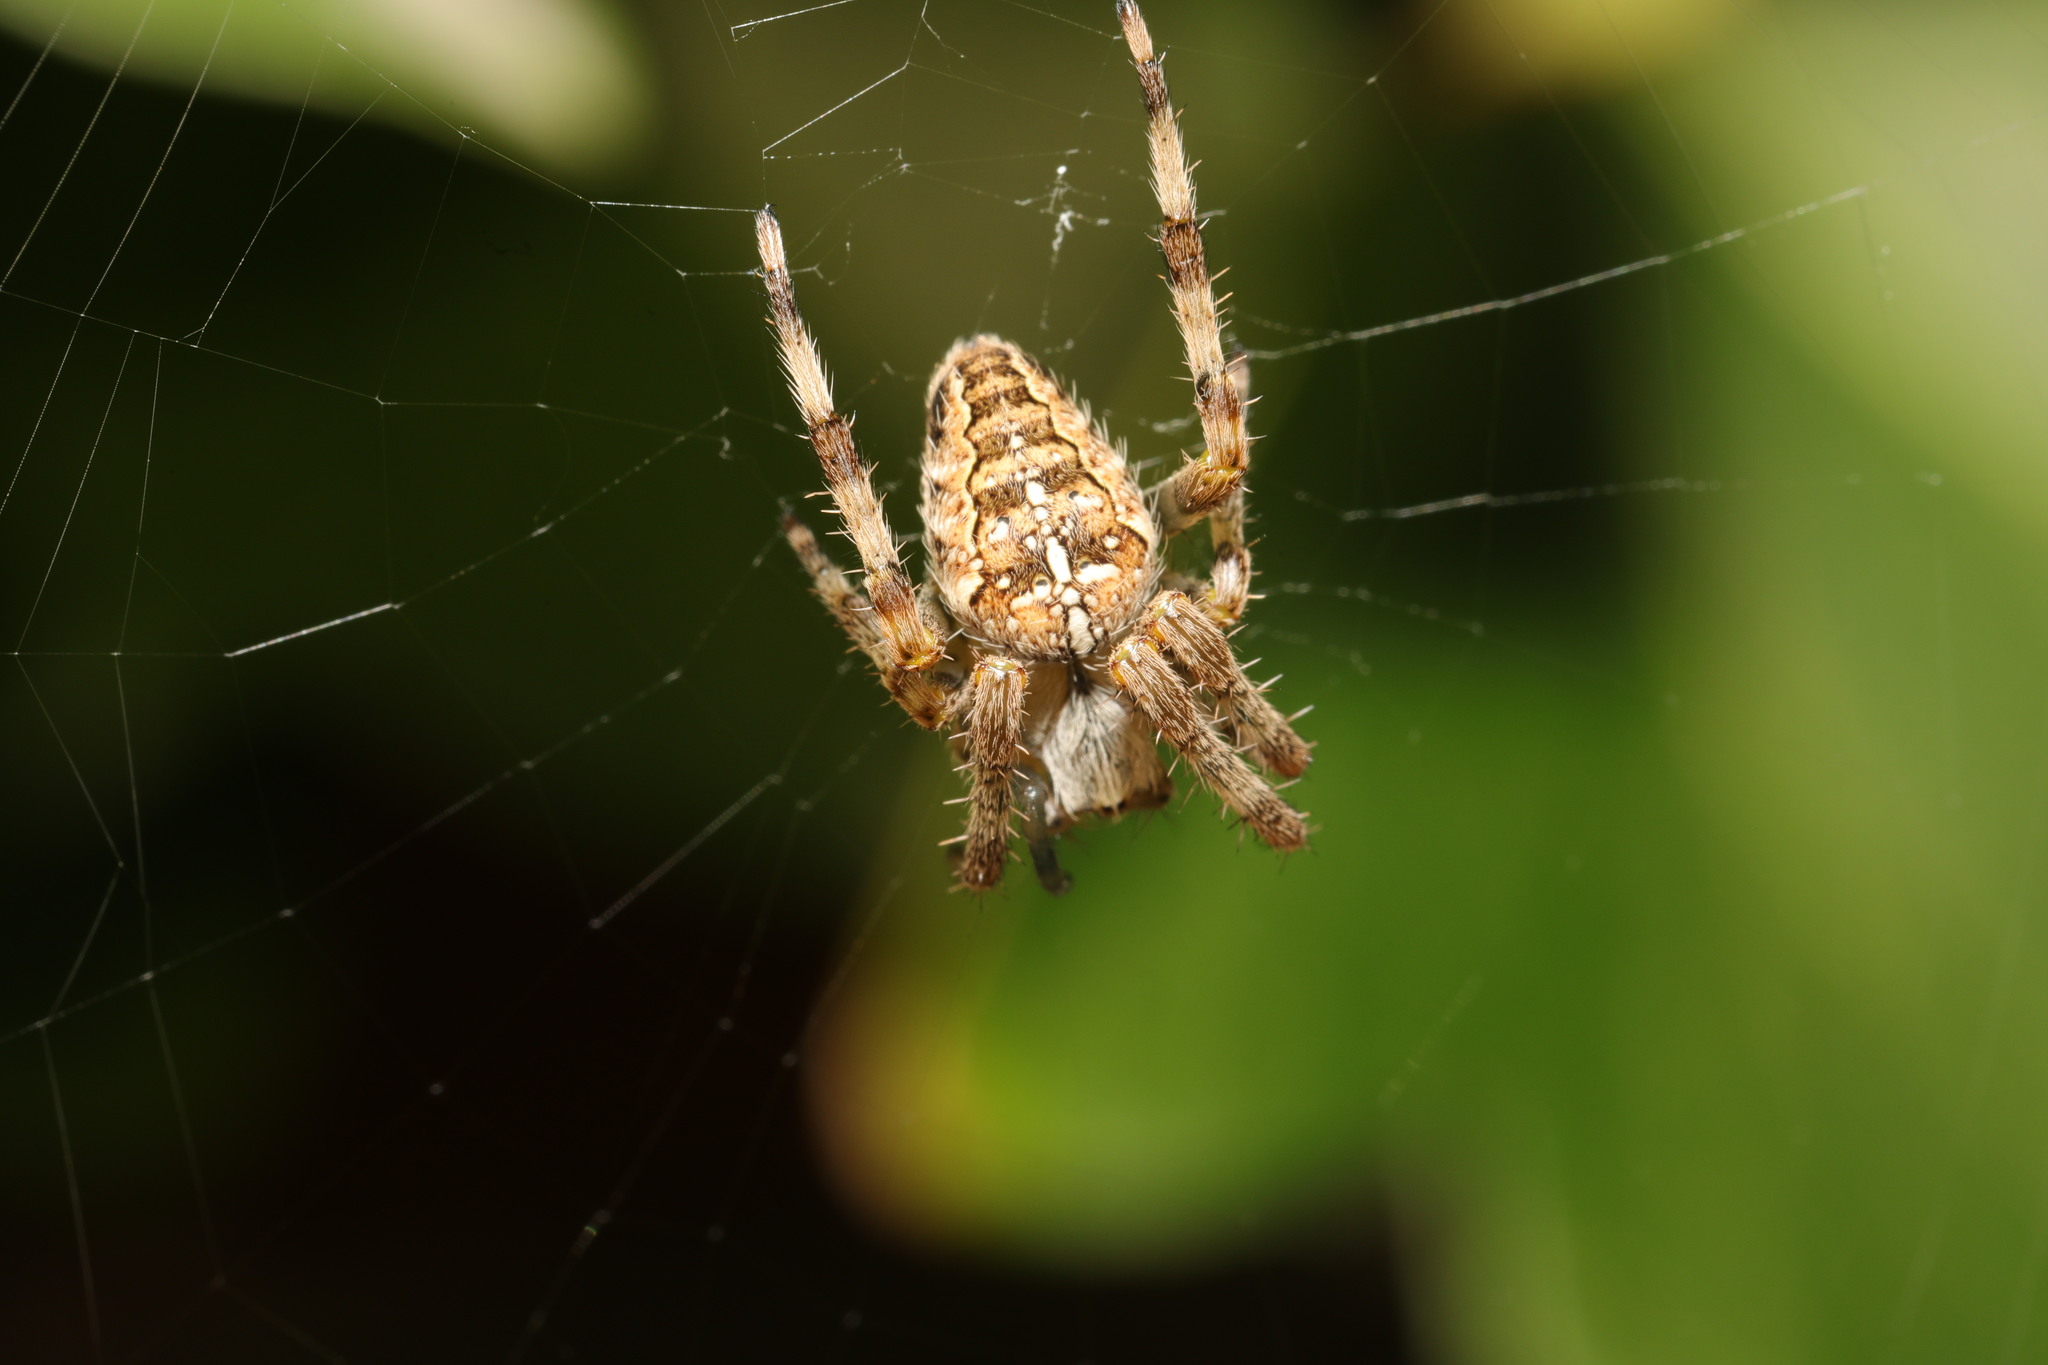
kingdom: Animalia
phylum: Arthropoda
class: Arachnida
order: Araneae
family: Araneidae
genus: Araneus
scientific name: Araneus diadematus
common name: Cross orbweaver
